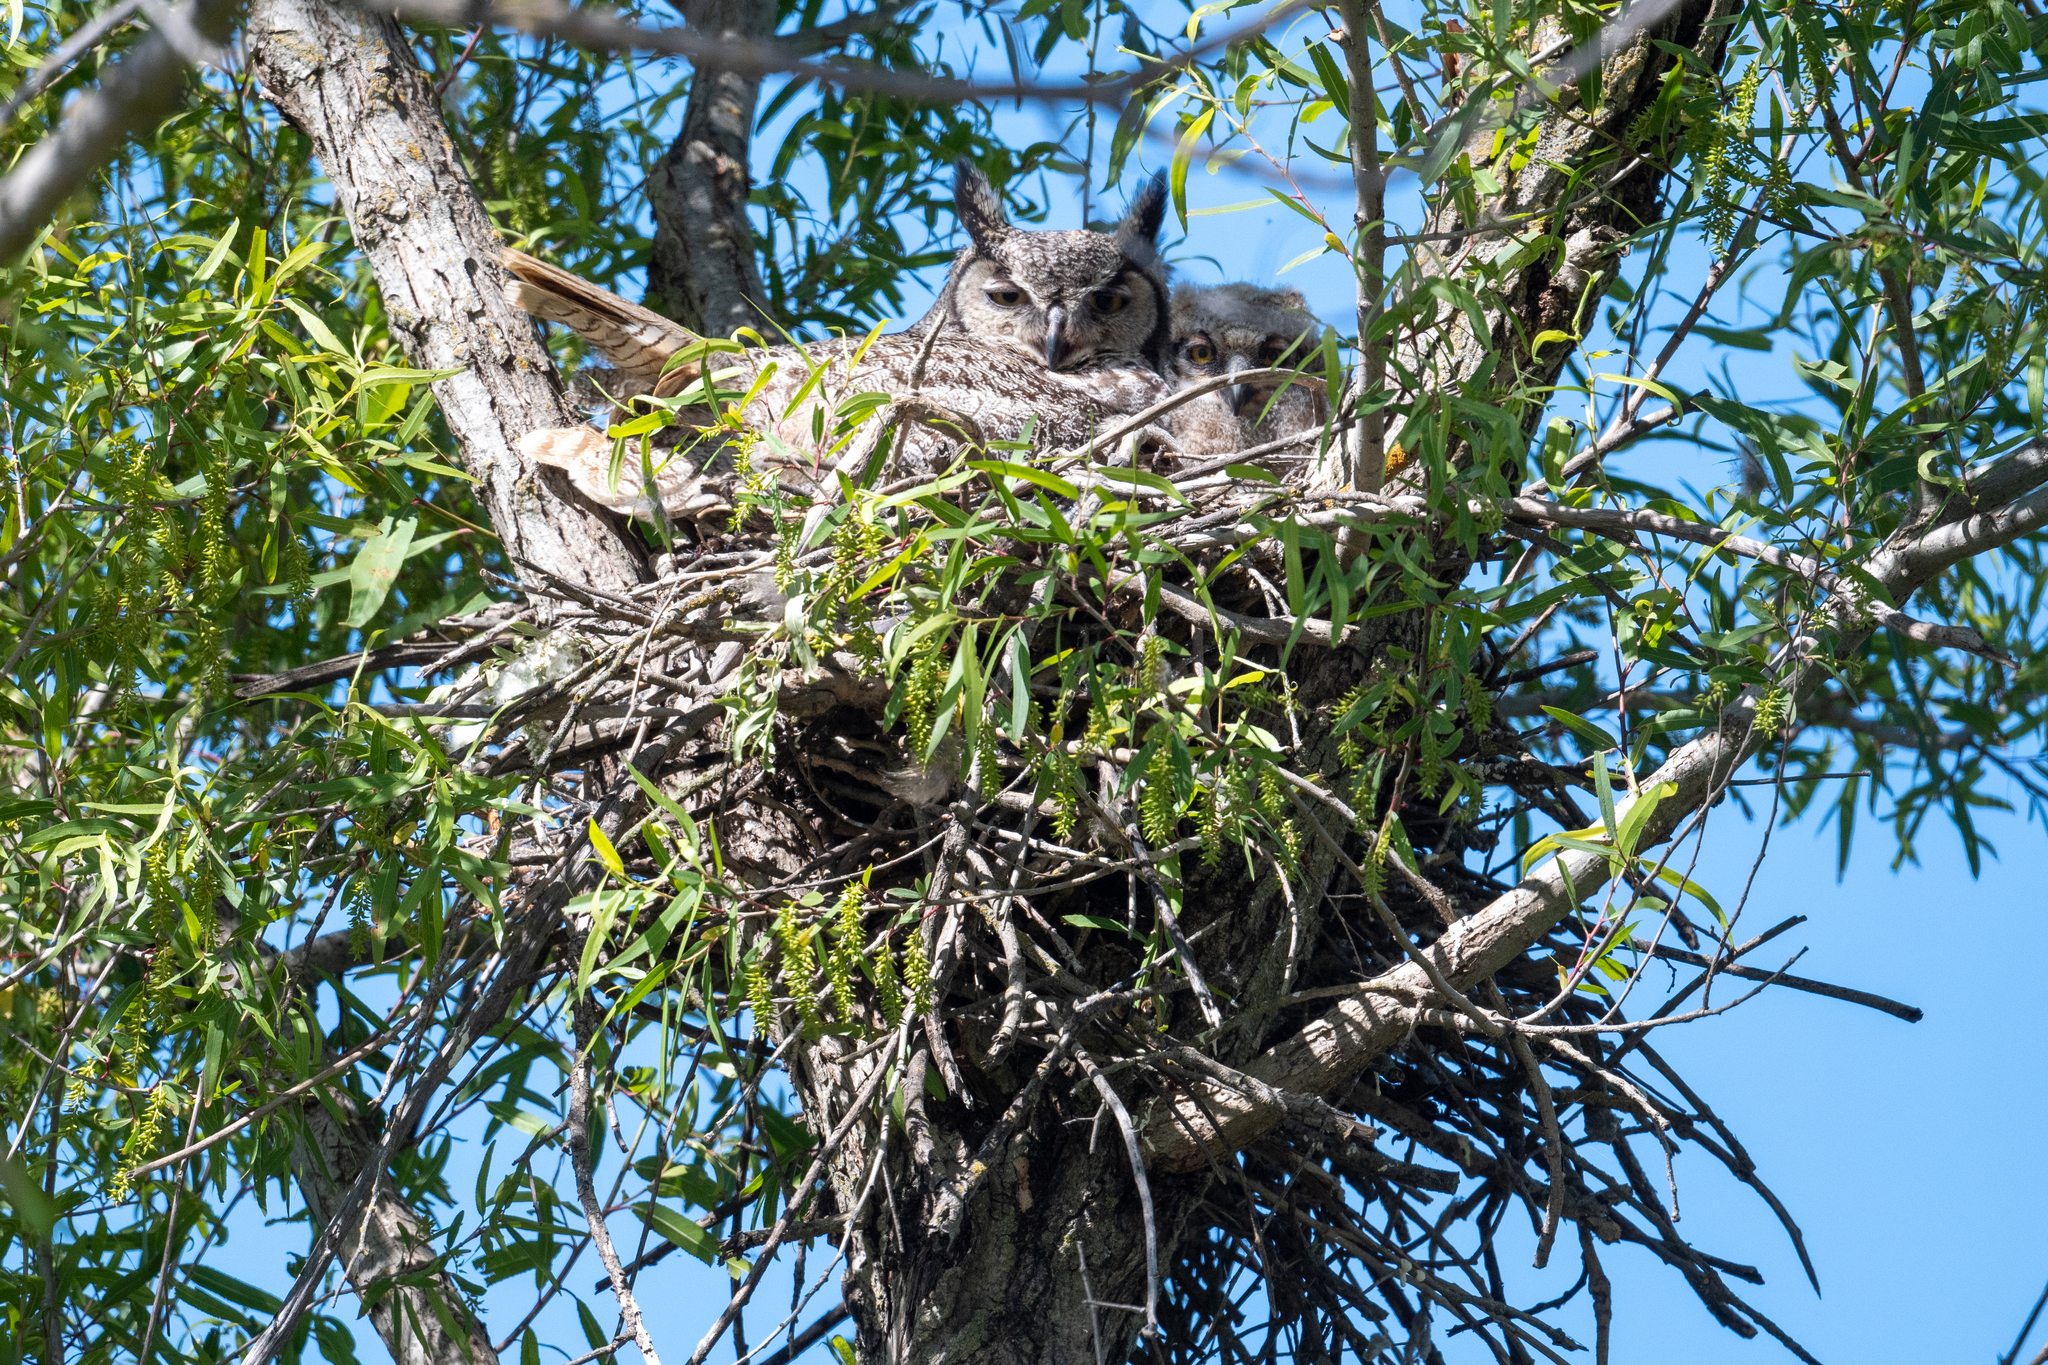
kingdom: Animalia
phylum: Chordata
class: Aves
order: Strigiformes
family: Strigidae
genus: Bubo
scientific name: Bubo virginianus
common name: Great horned owl
